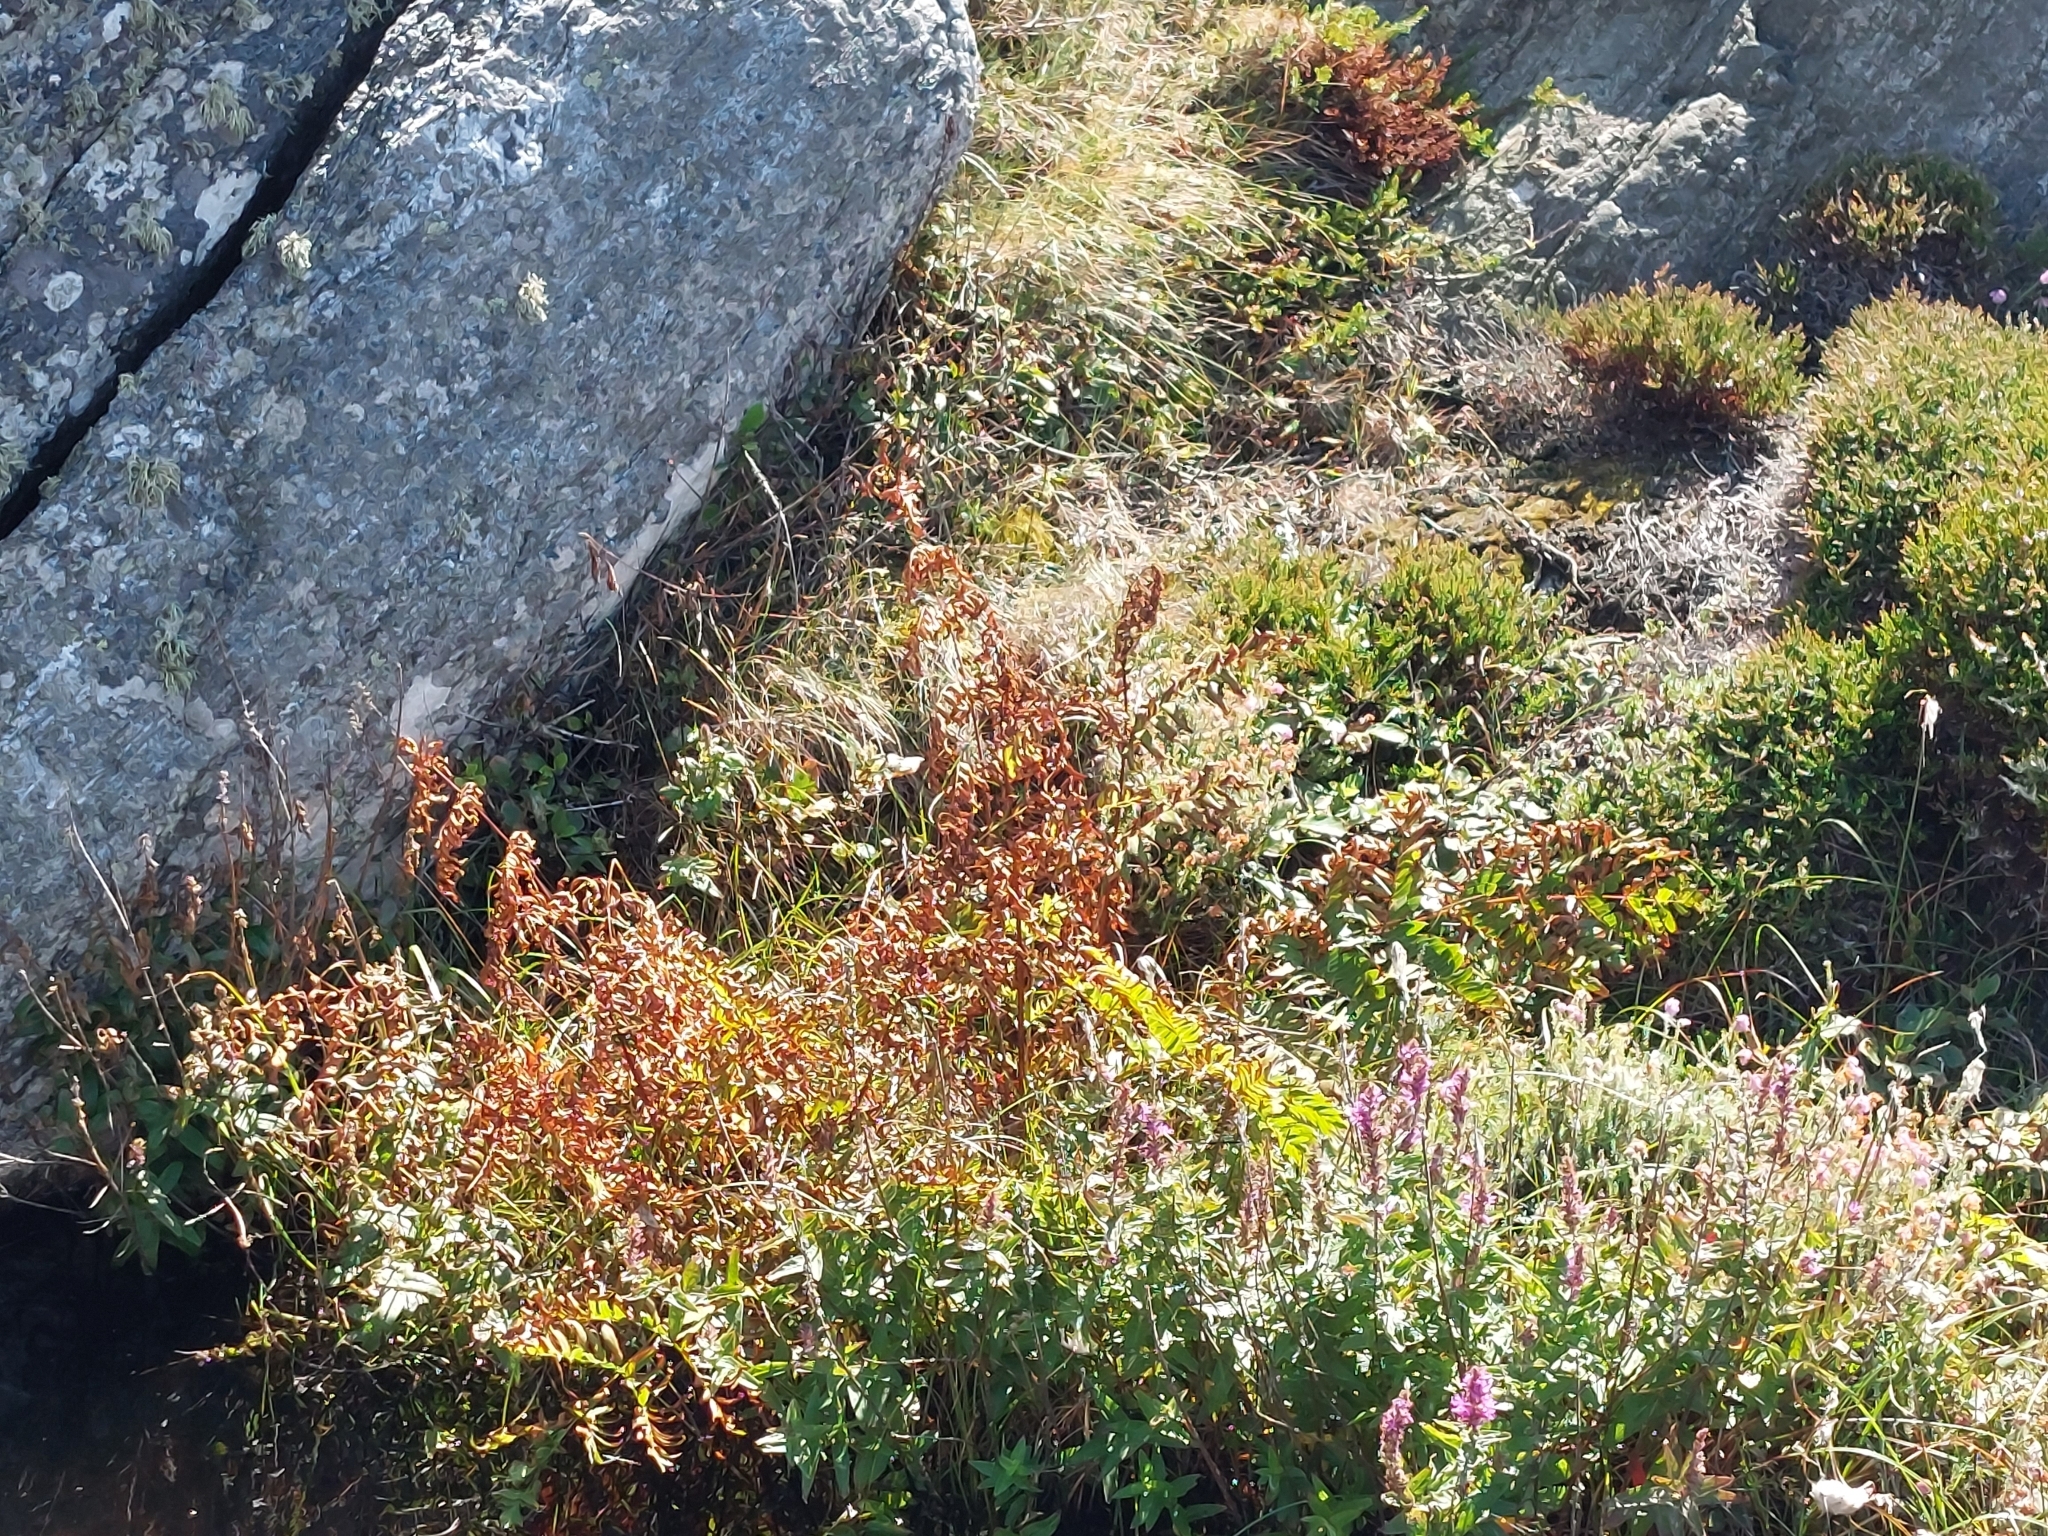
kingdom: Plantae
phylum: Tracheophyta
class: Polypodiopsida
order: Osmundales
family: Osmundaceae
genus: Osmunda
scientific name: Osmunda regalis
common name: Royal fern
